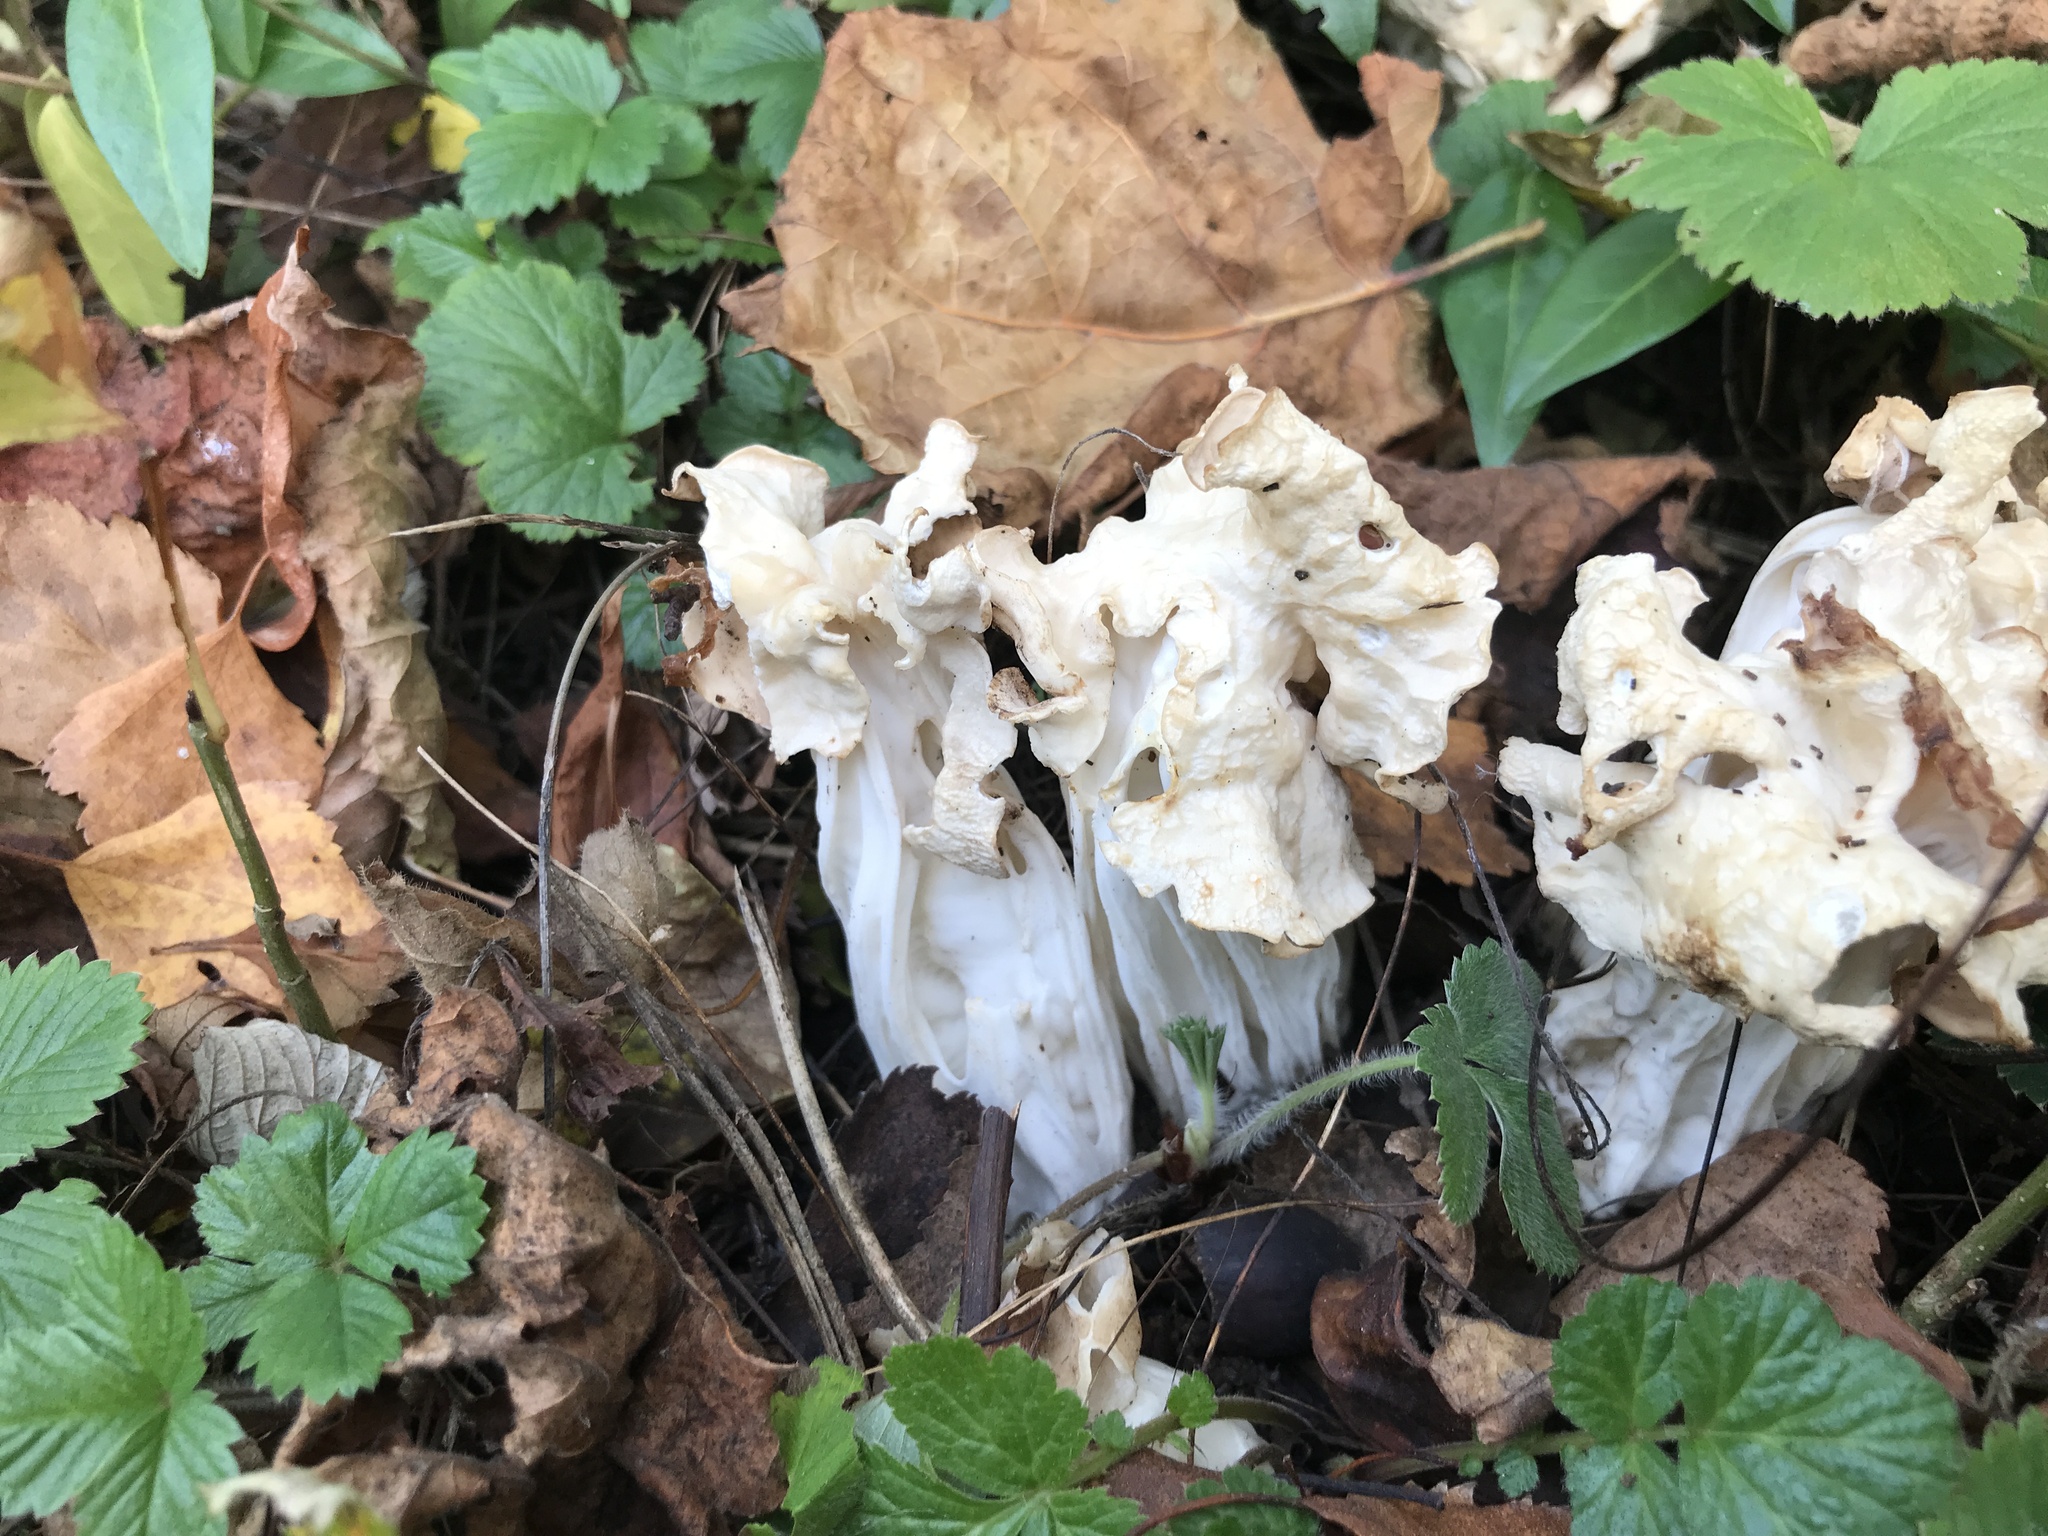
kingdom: Fungi
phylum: Ascomycota
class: Pezizomycetes
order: Pezizales
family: Helvellaceae
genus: Helvella
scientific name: Helvella crispa
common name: White saddle
